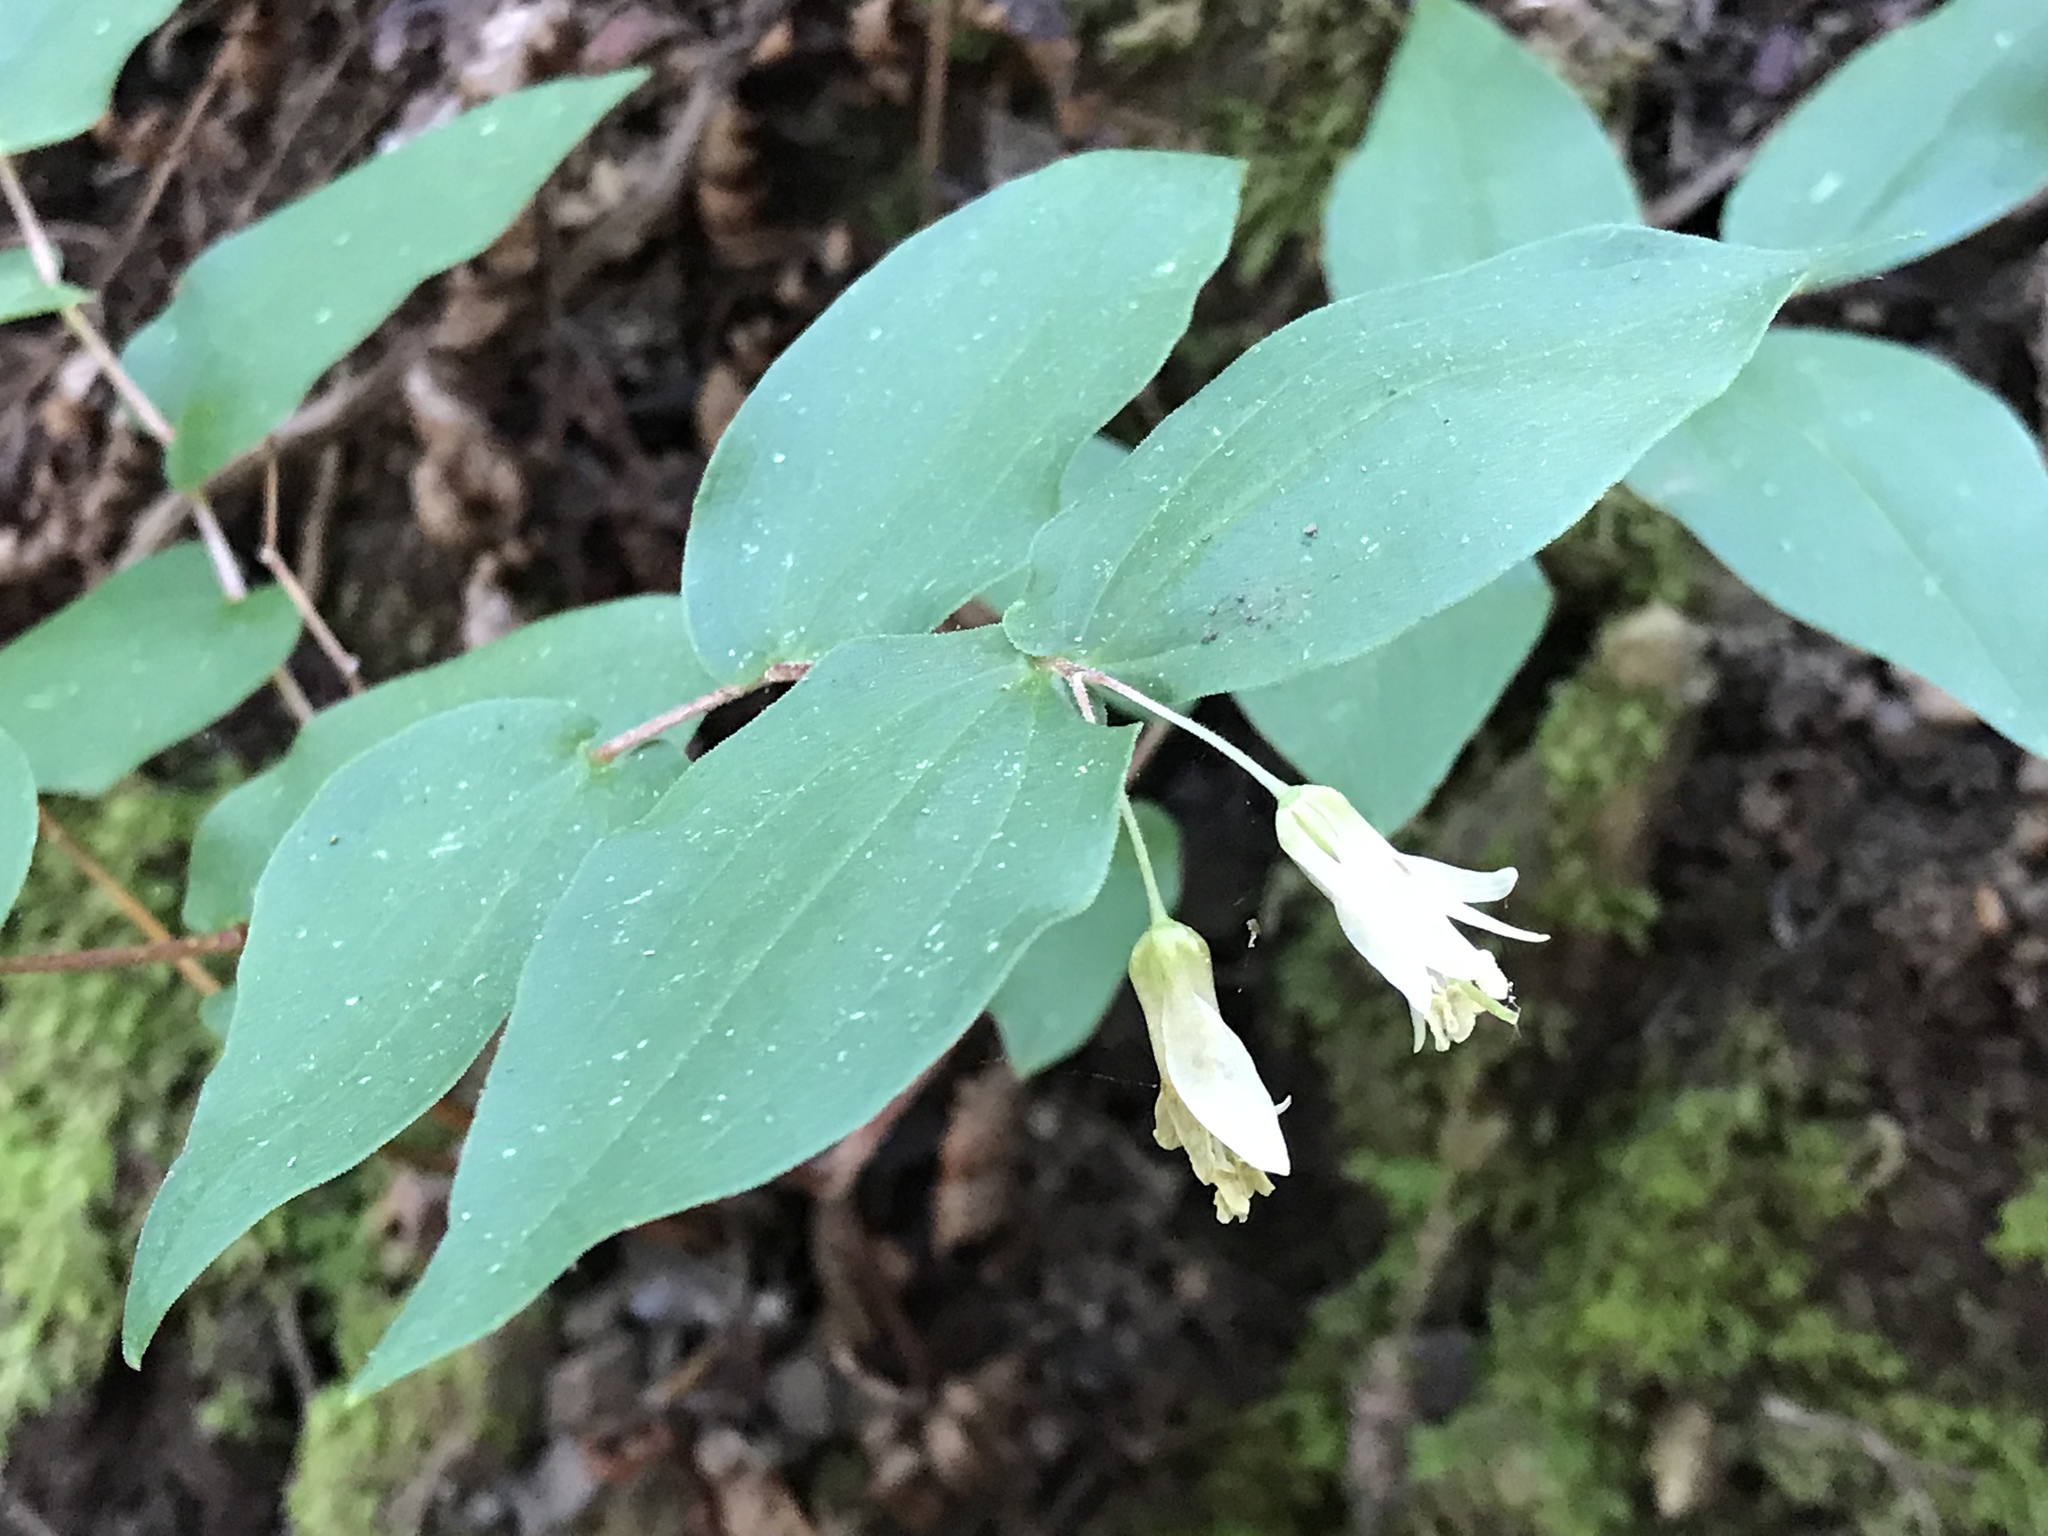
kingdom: Plantae
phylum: Tracheophyta
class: Liliopsida
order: Liliales
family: Liliaceae
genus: Prosartes
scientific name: Prosartes hookeri
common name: Fairy-bells
